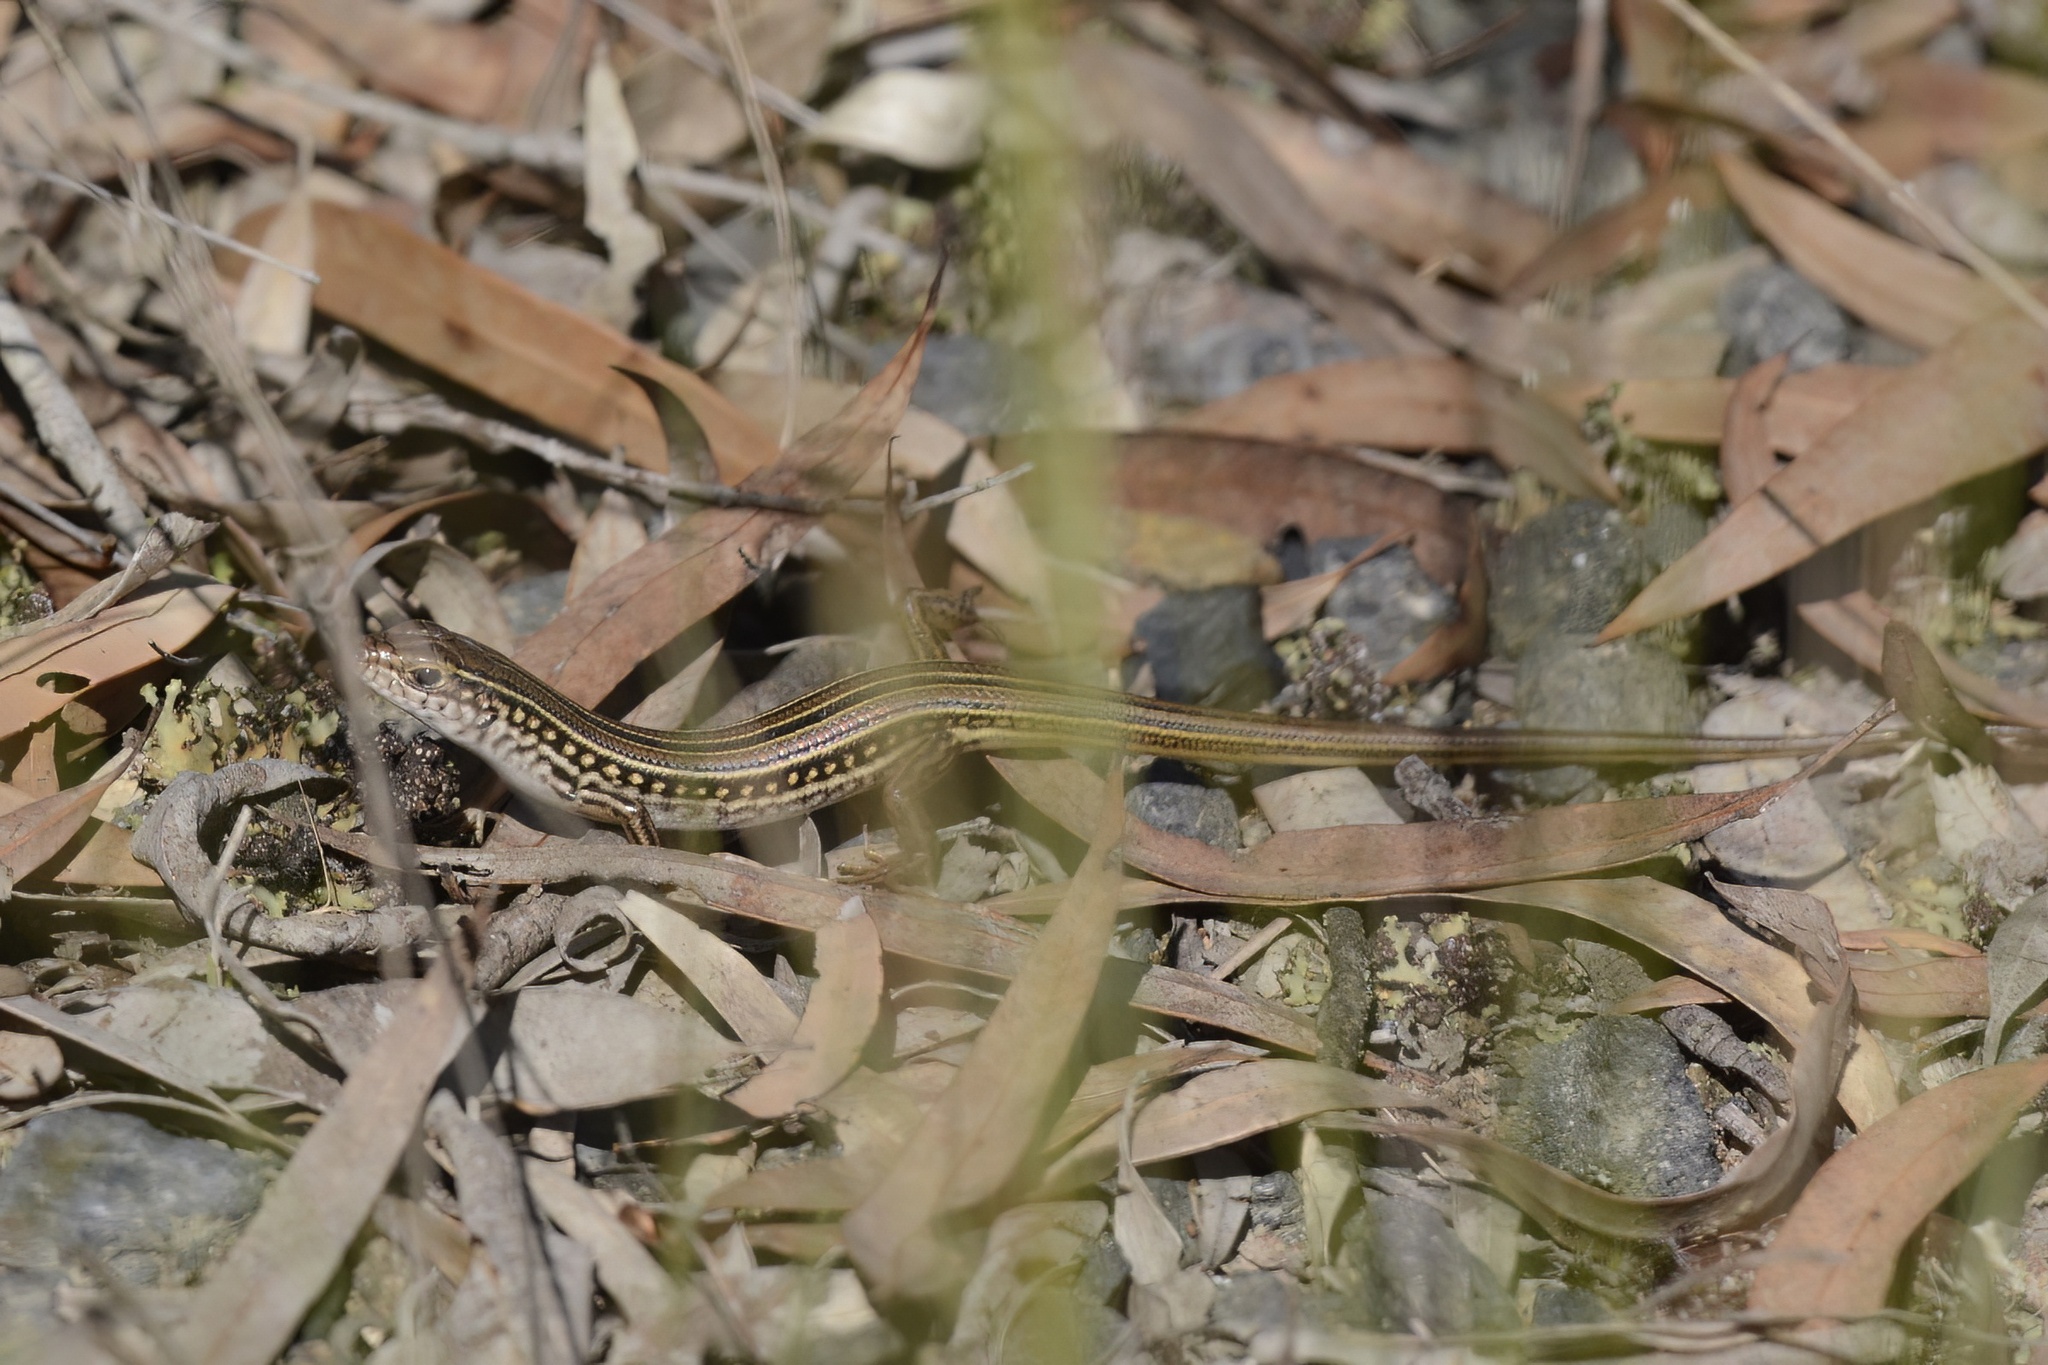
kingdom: Animalia
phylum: Chordata
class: Squamata
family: Scincidae
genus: Ctenotus
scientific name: Ctenotus robustus
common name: Robust ctenotus
